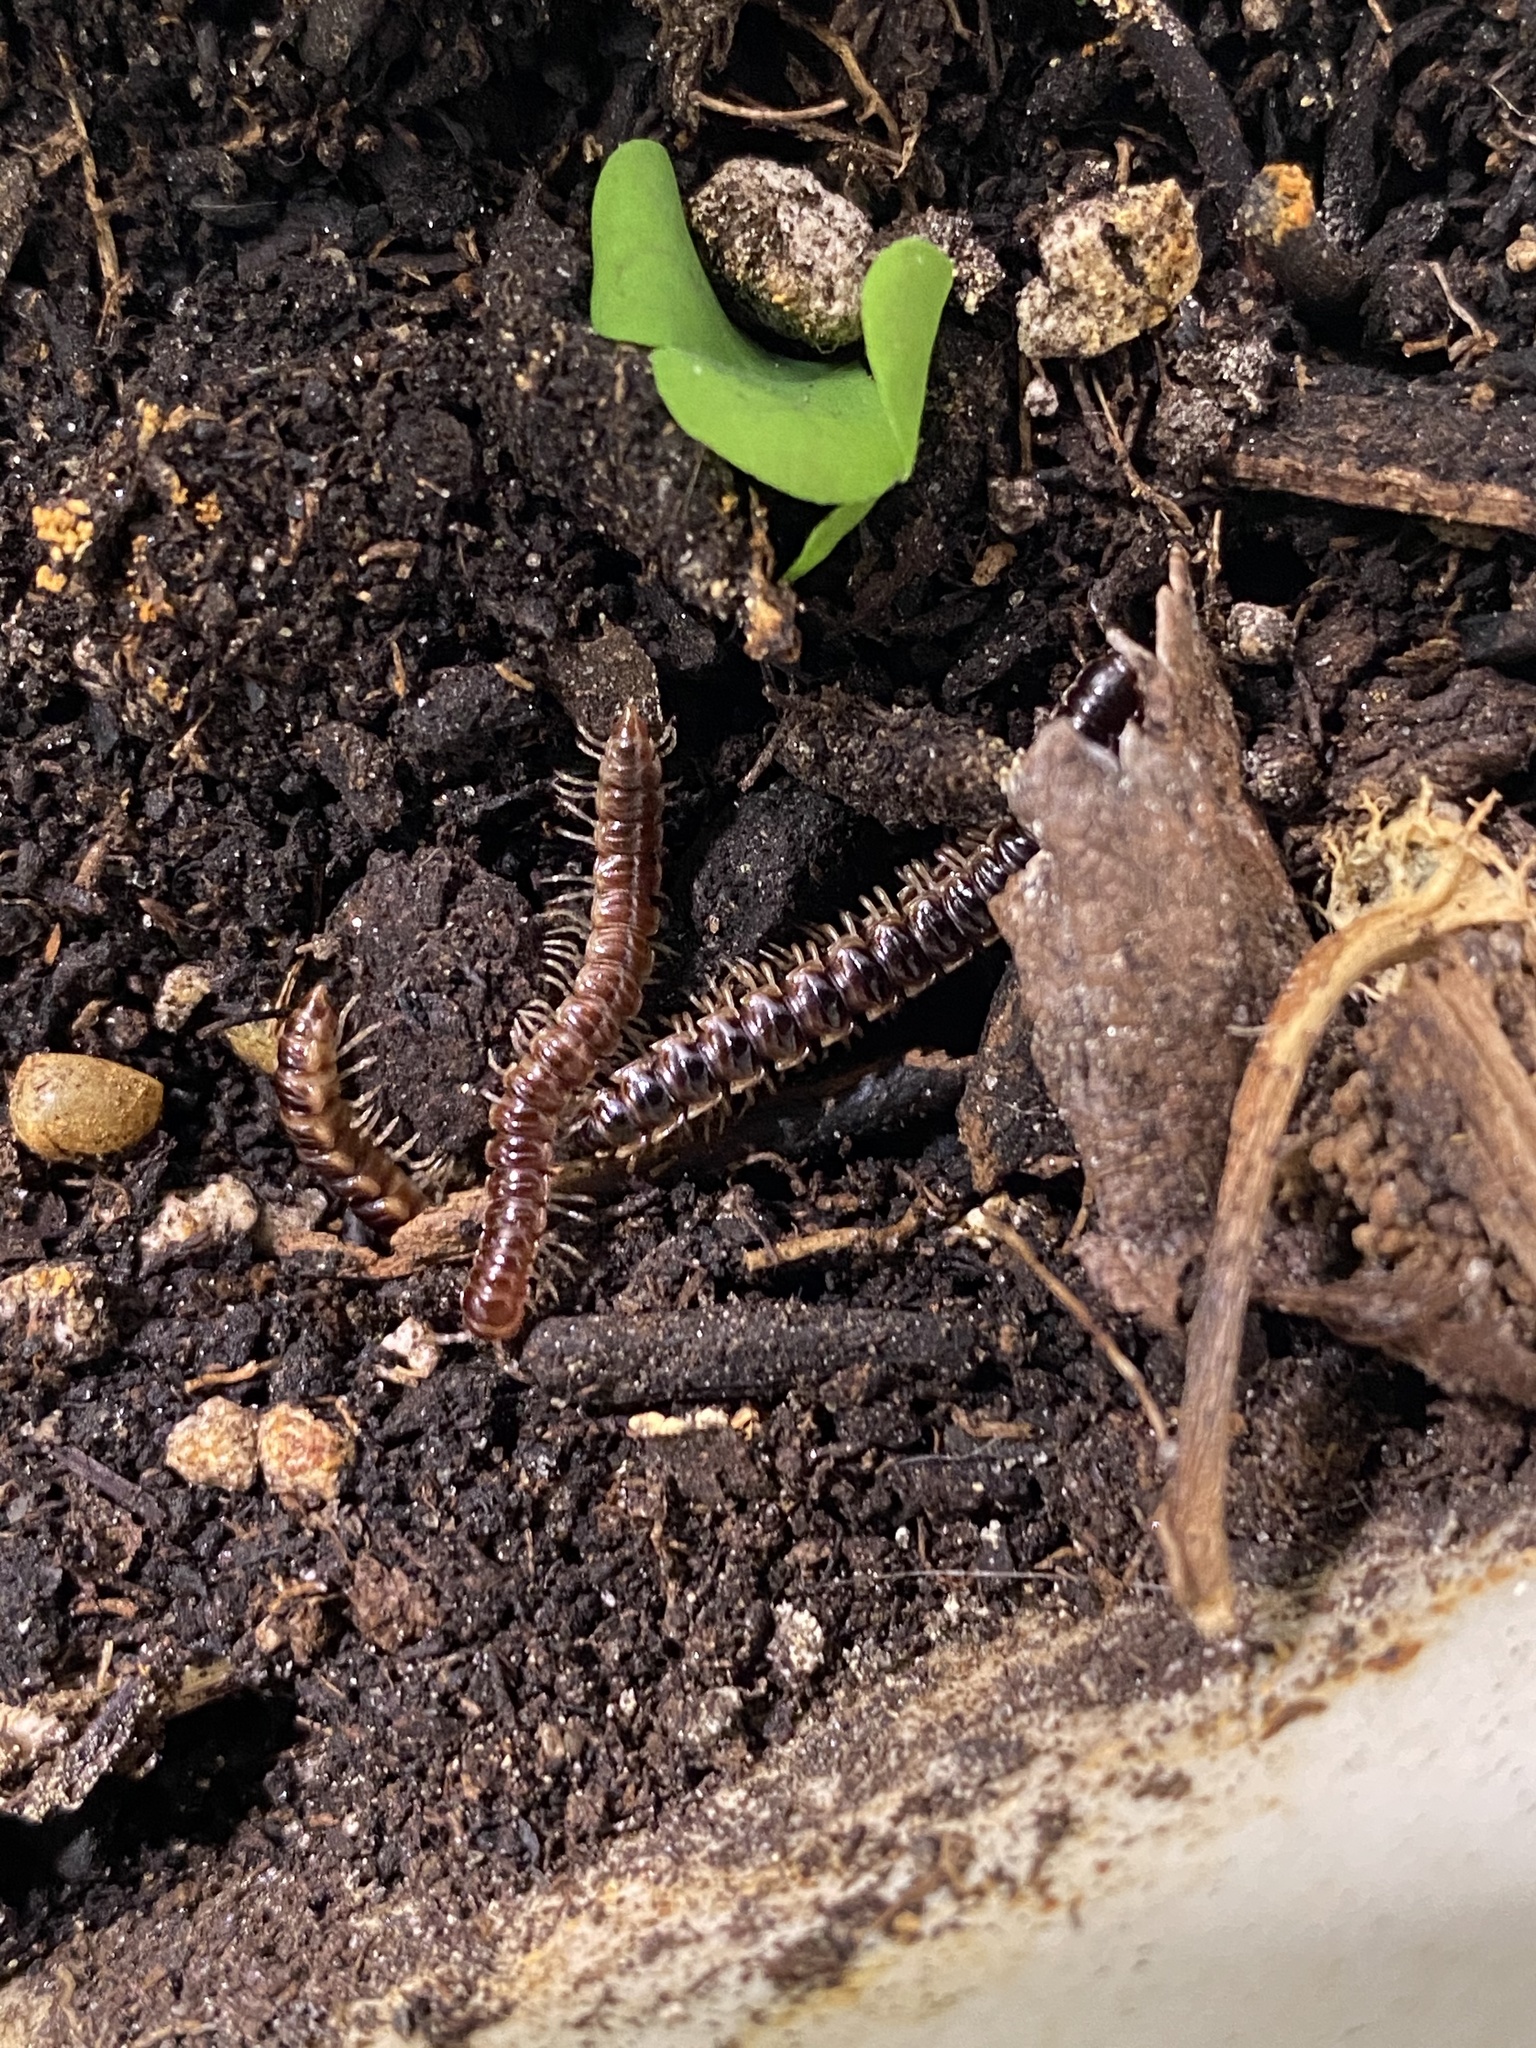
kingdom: Animalia
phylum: Arthropoda
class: Diplopoda
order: Polydesmida
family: Paradoxosomatidae
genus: Oxidus
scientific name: Oxidus gracilis
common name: Greenhouse millipede
